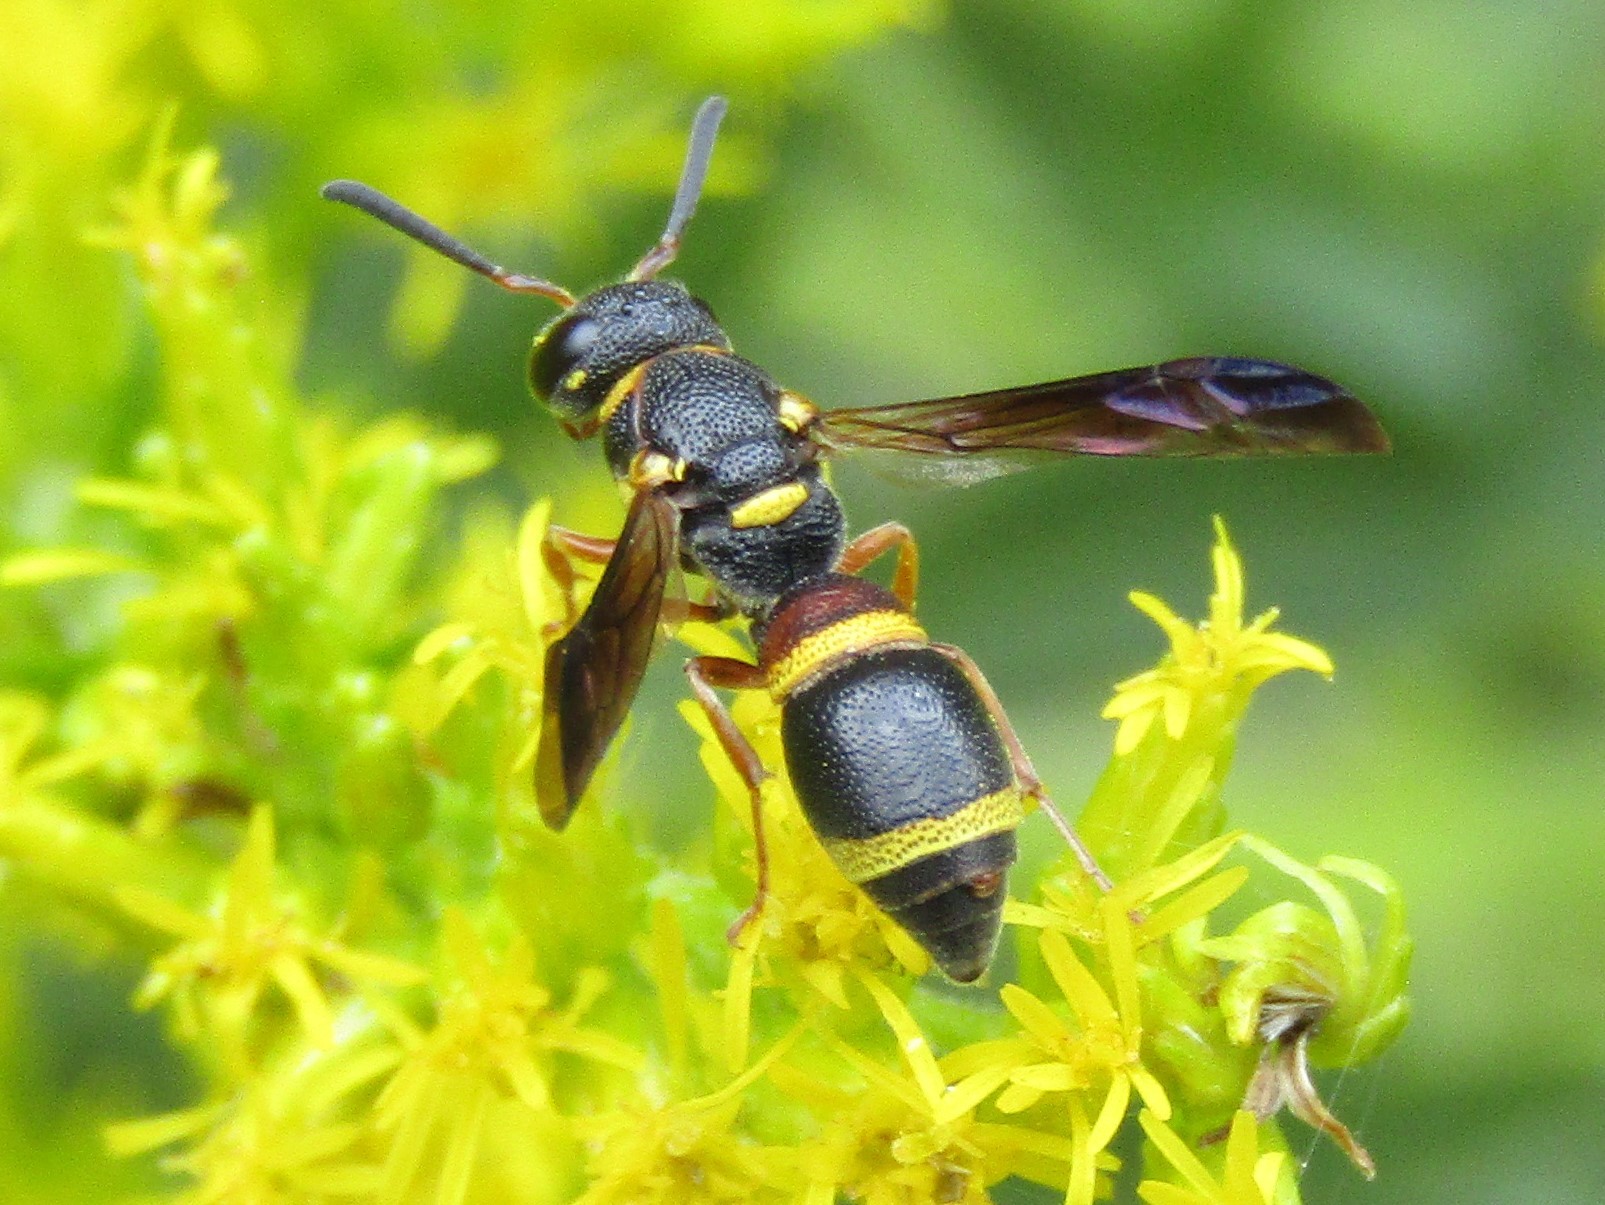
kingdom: Animalia
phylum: Arthropoda
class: Insecta
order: Hymenoptera
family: Eumenidae
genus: Parancistrocerus
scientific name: Parancistrocerus perennis
